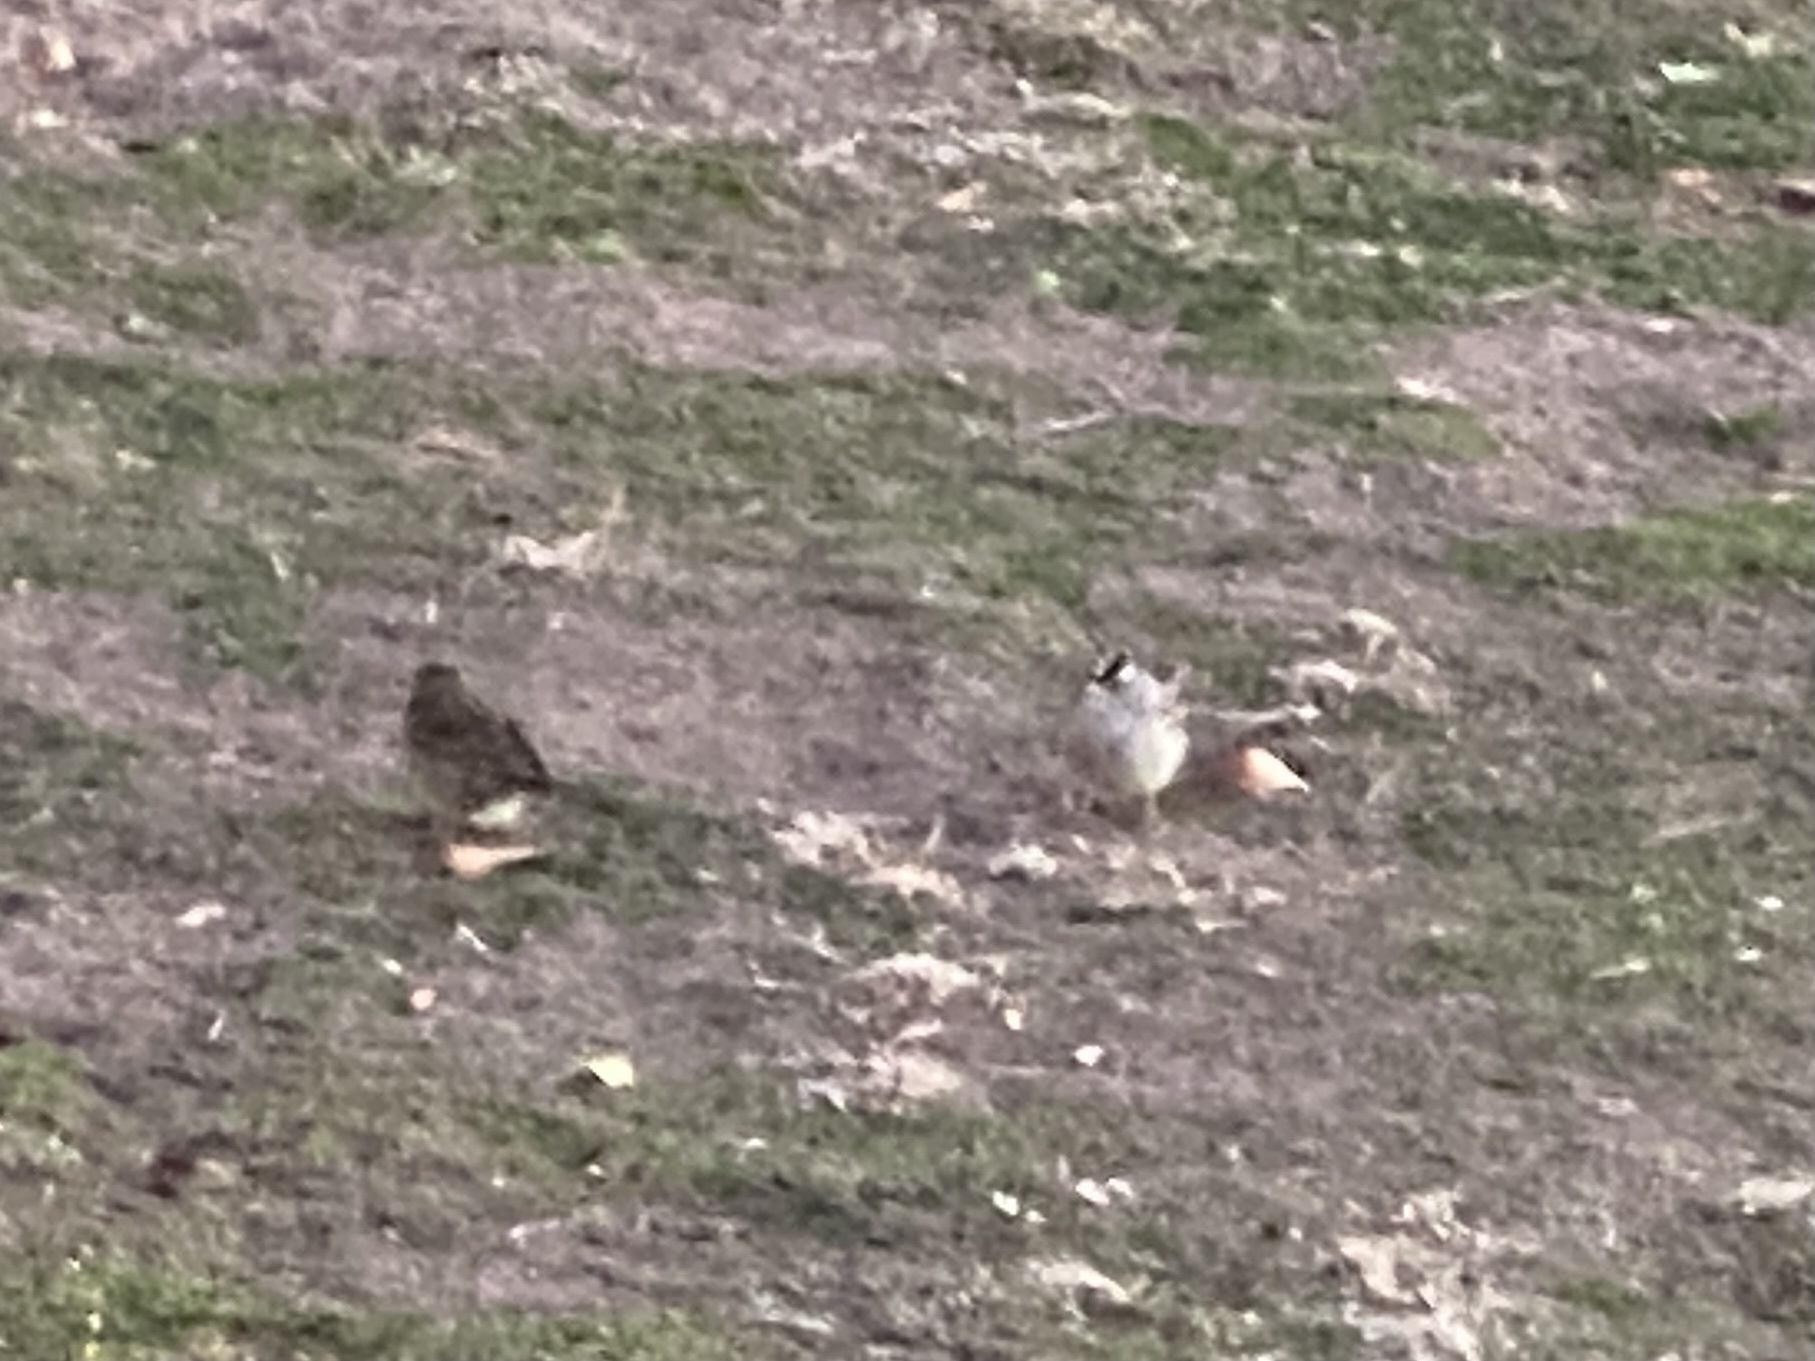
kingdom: Animalia
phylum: Chordata
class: Aves
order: Passeriformes
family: Passerellidae
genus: Zonotrichia
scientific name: Zonotrichia leucophrys
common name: White-crowned sparrow
